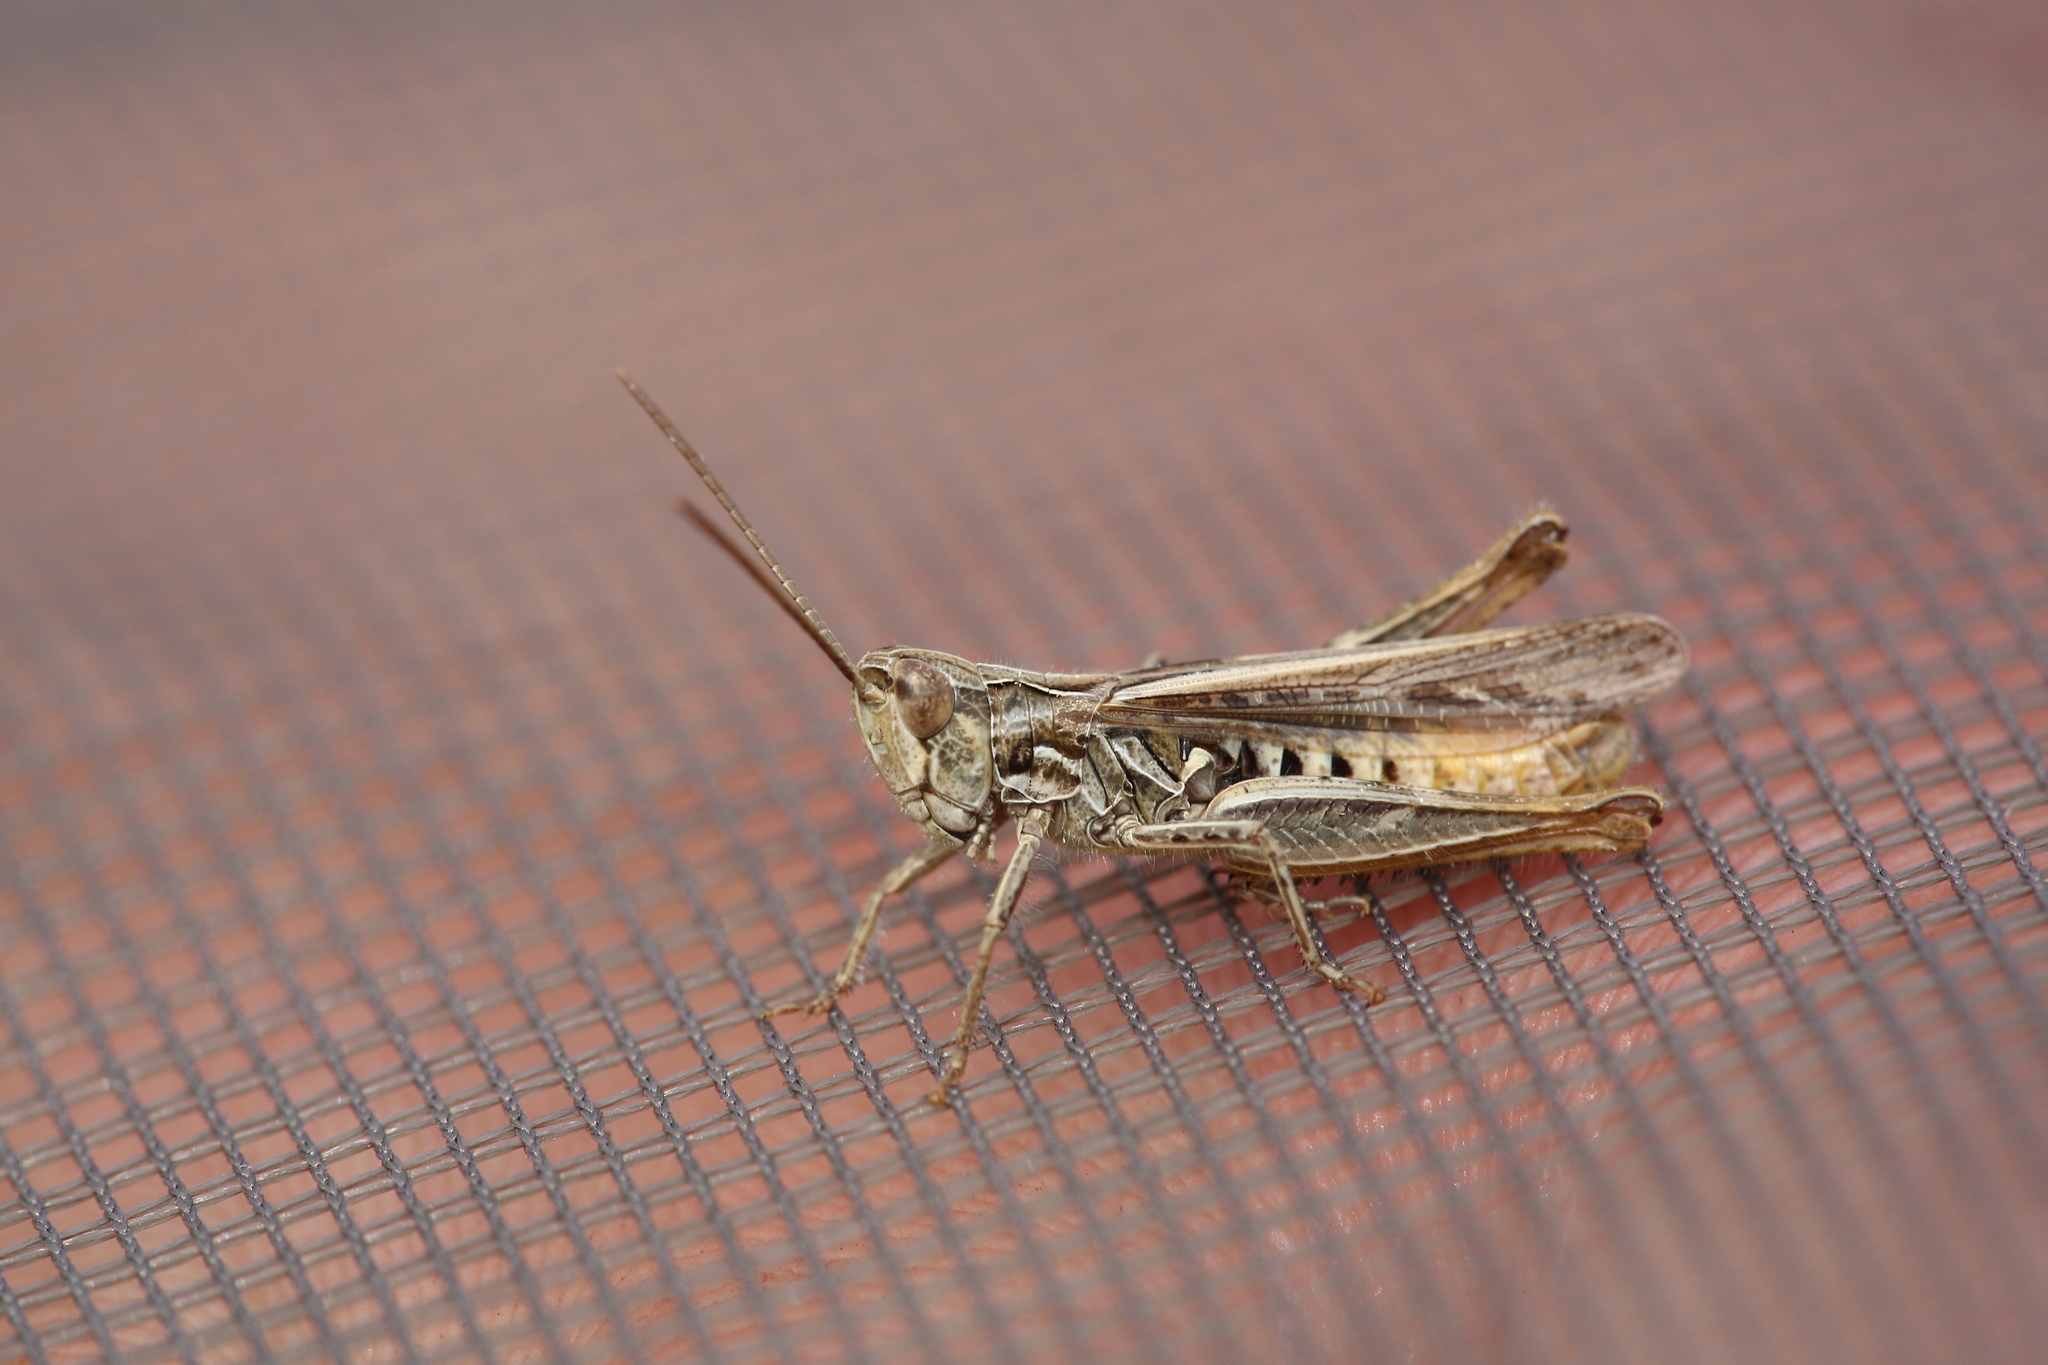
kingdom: Animalia
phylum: Arthropoda
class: Insecta
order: Orthoptera
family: Acrididae
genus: Omocestus
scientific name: Omocestus haemorrhoidalis
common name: Orange-tipped grasshopper
